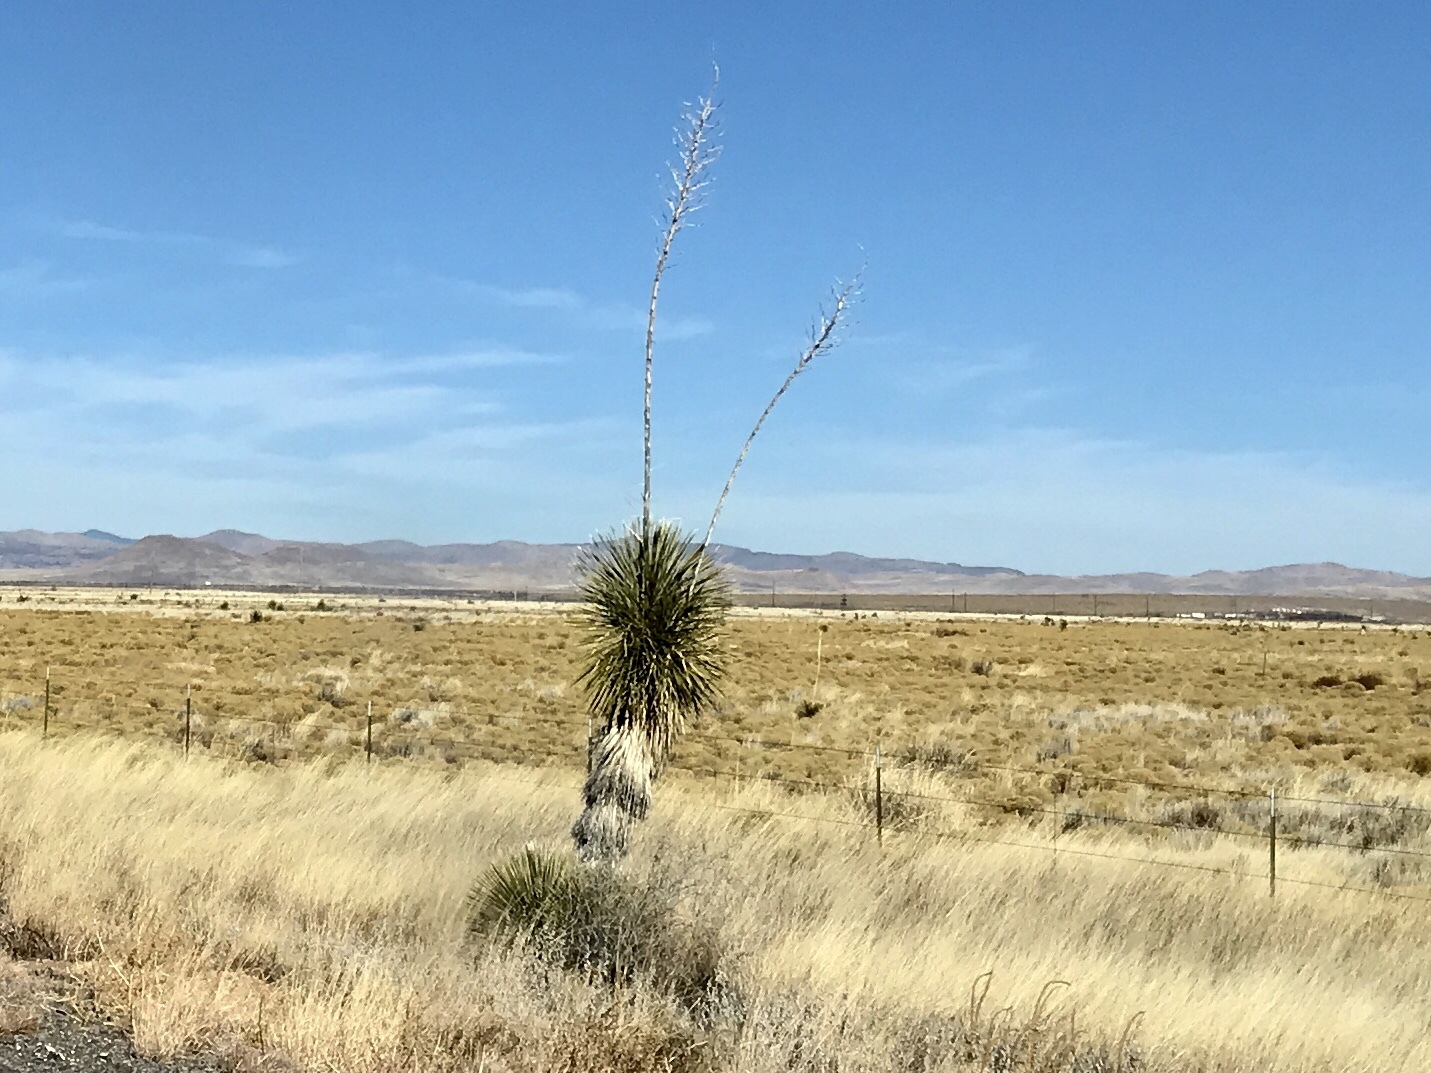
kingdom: Plantae
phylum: Tracheophyta
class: Liliopsida
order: Asparagales
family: Asparagaceae
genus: Yucca
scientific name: Yucca elata
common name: Palmella
